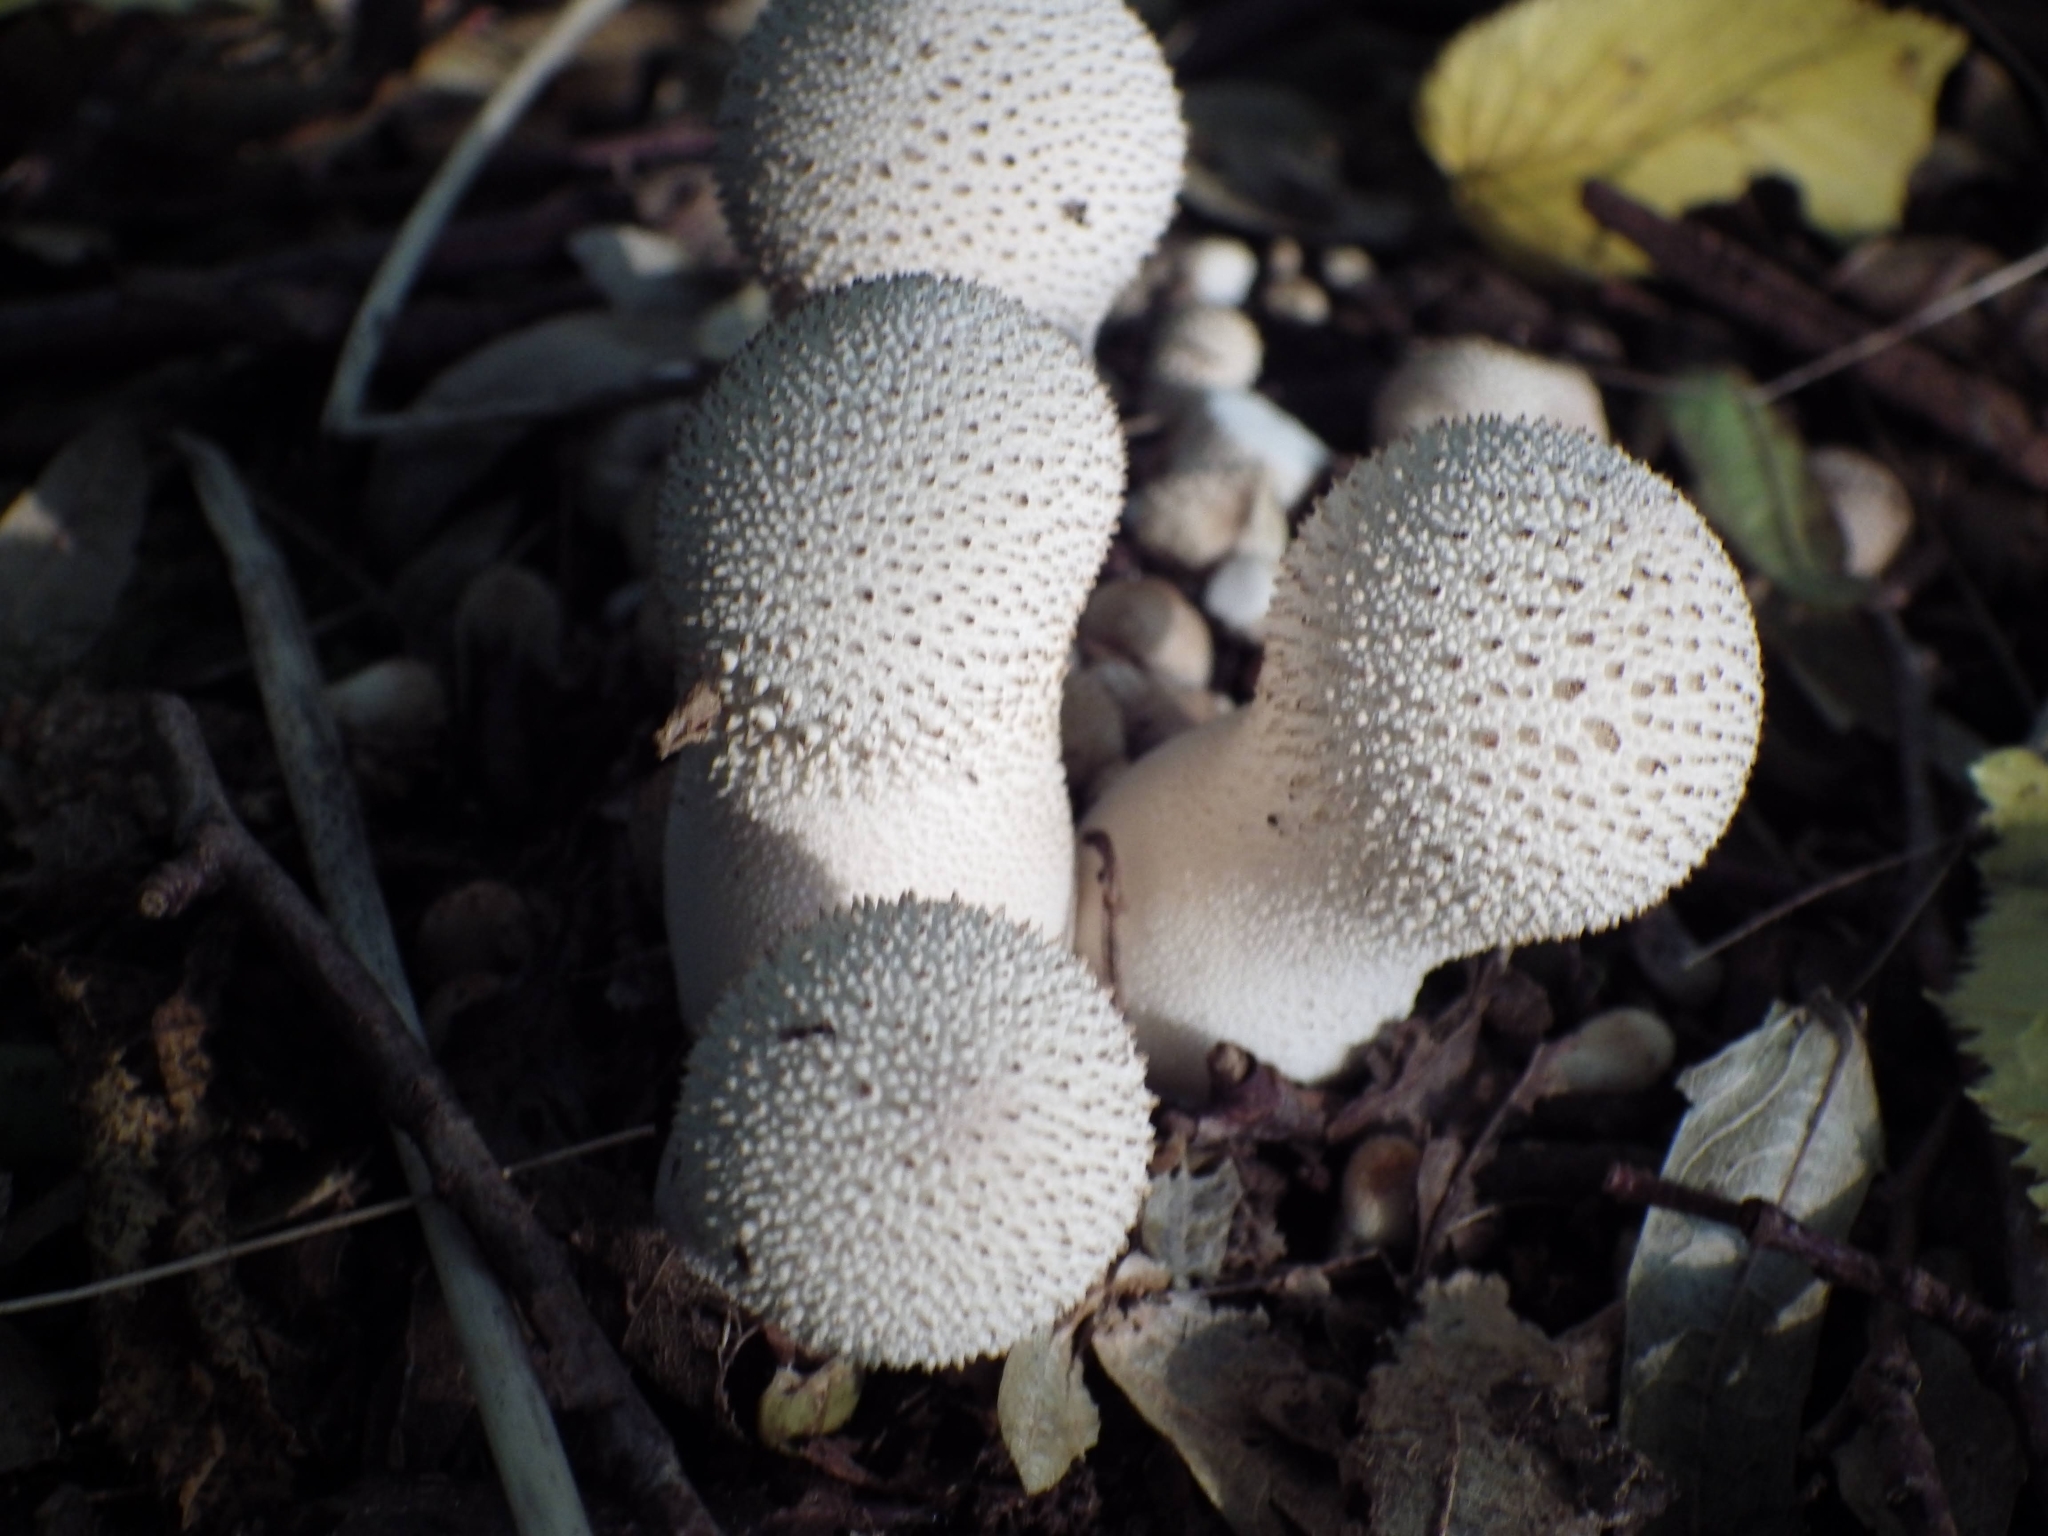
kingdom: Fungi
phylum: Basidiomycota
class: Agaricomycetes
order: Agaricales
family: Lycoperdaceae
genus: Lycoperdon
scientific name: Lycoperdon perlatum
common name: Common puffball
